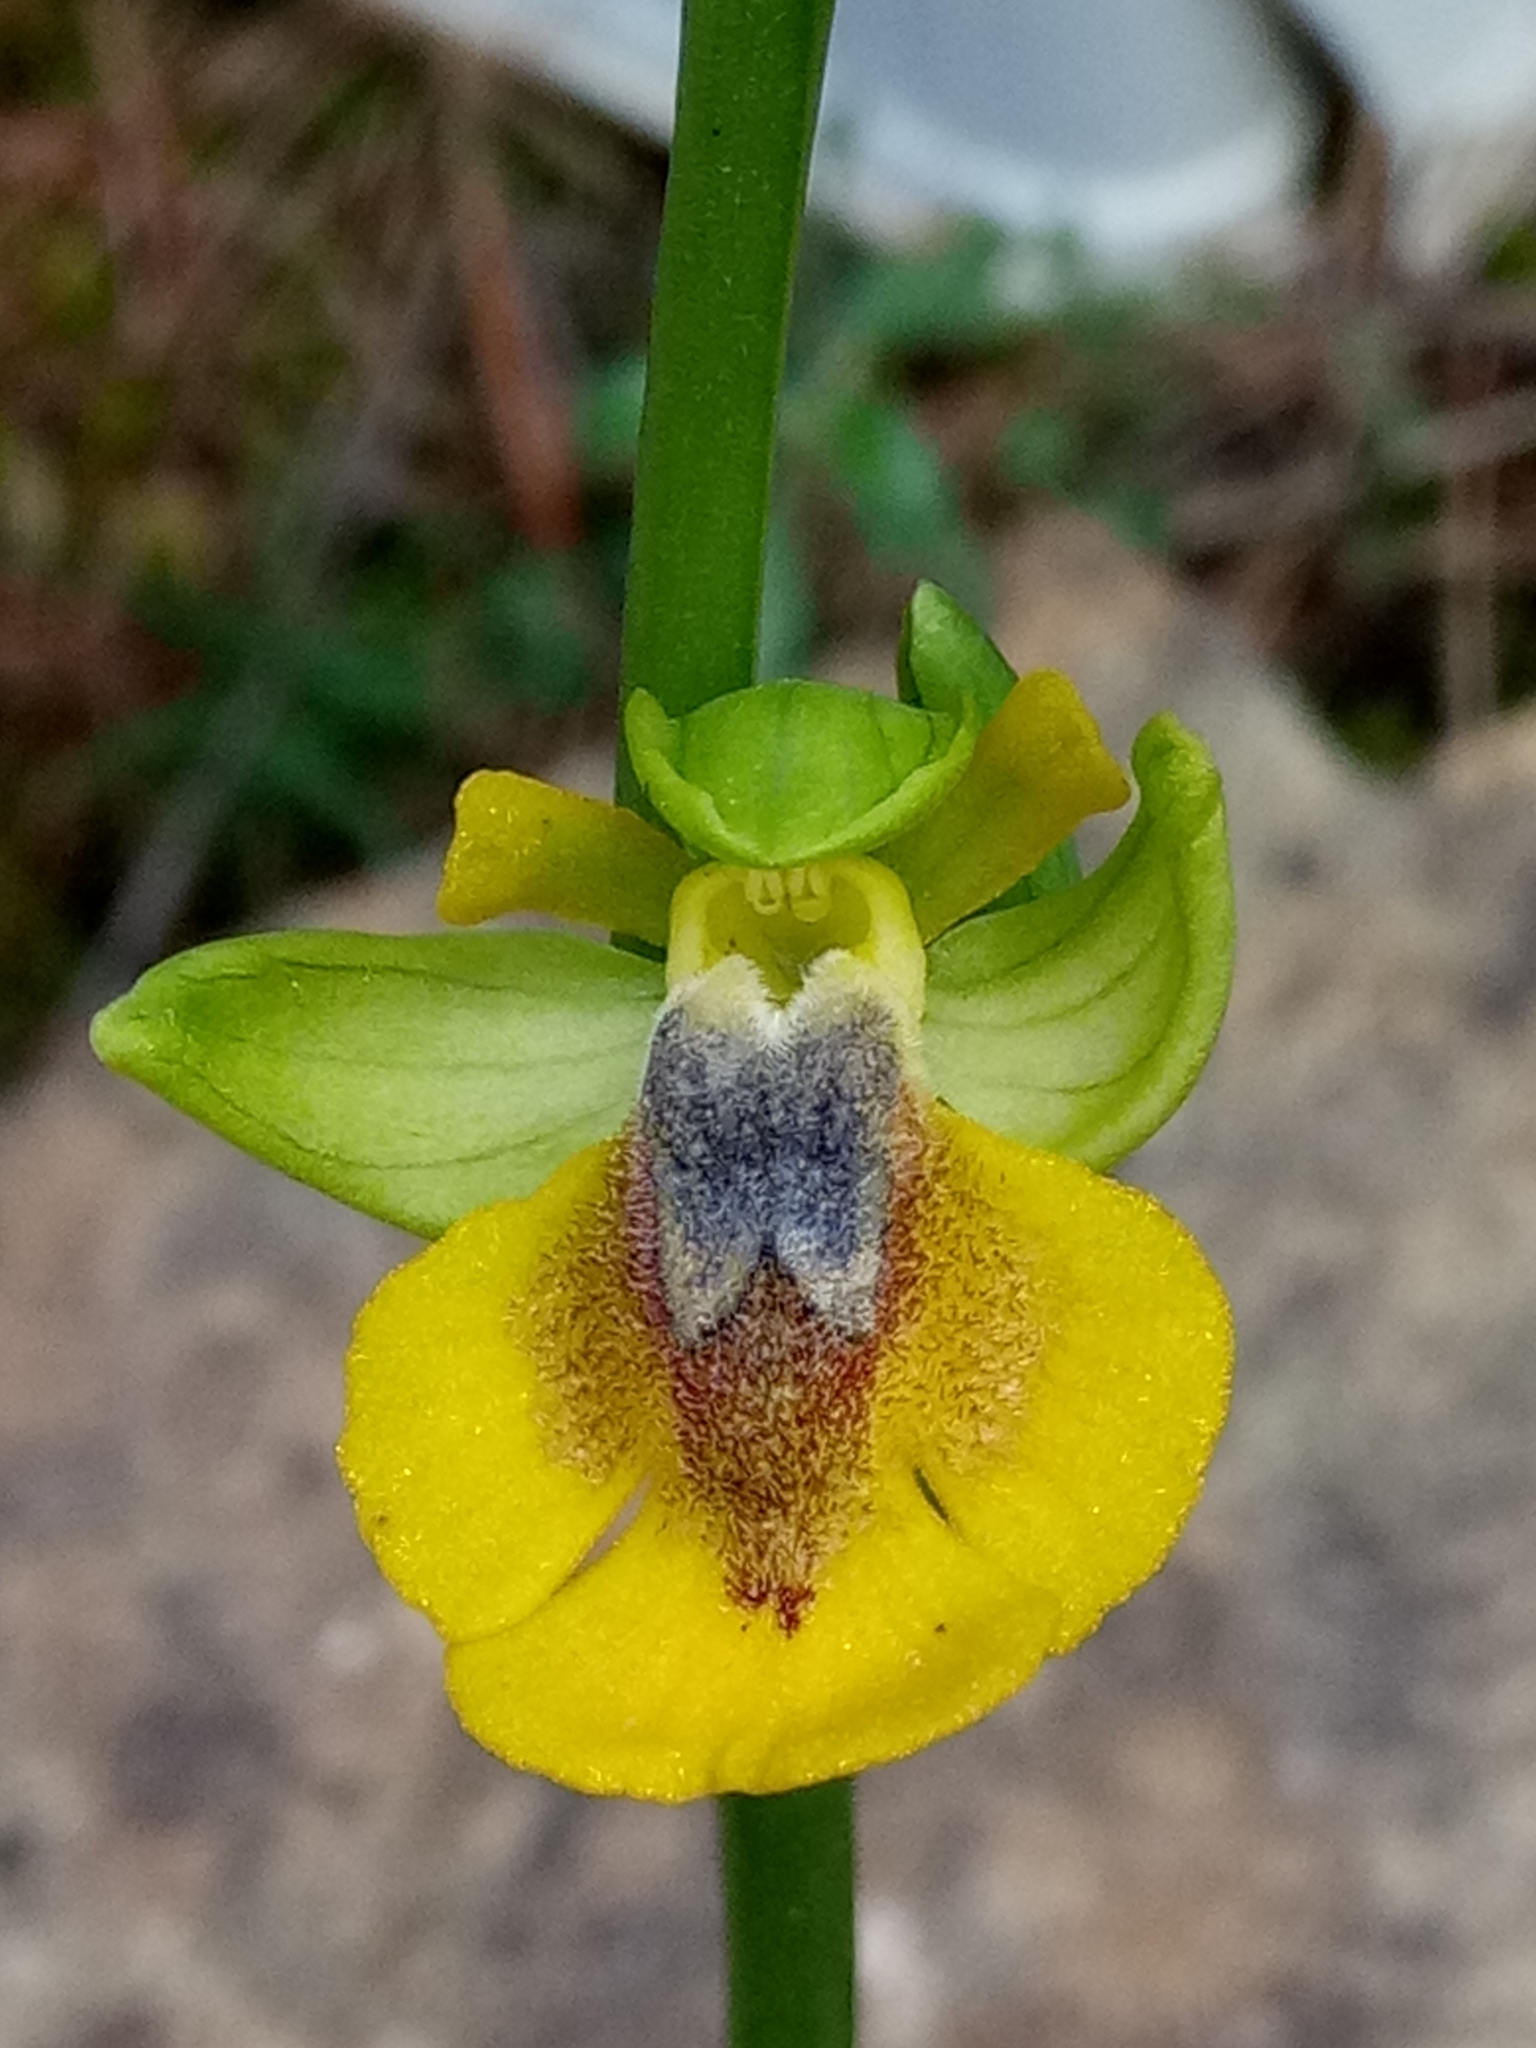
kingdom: Plantae
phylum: Tracheophyta
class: Liliopsida
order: Asparagales
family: Orchidaceae
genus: Ophrys
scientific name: Ophrys lutea
